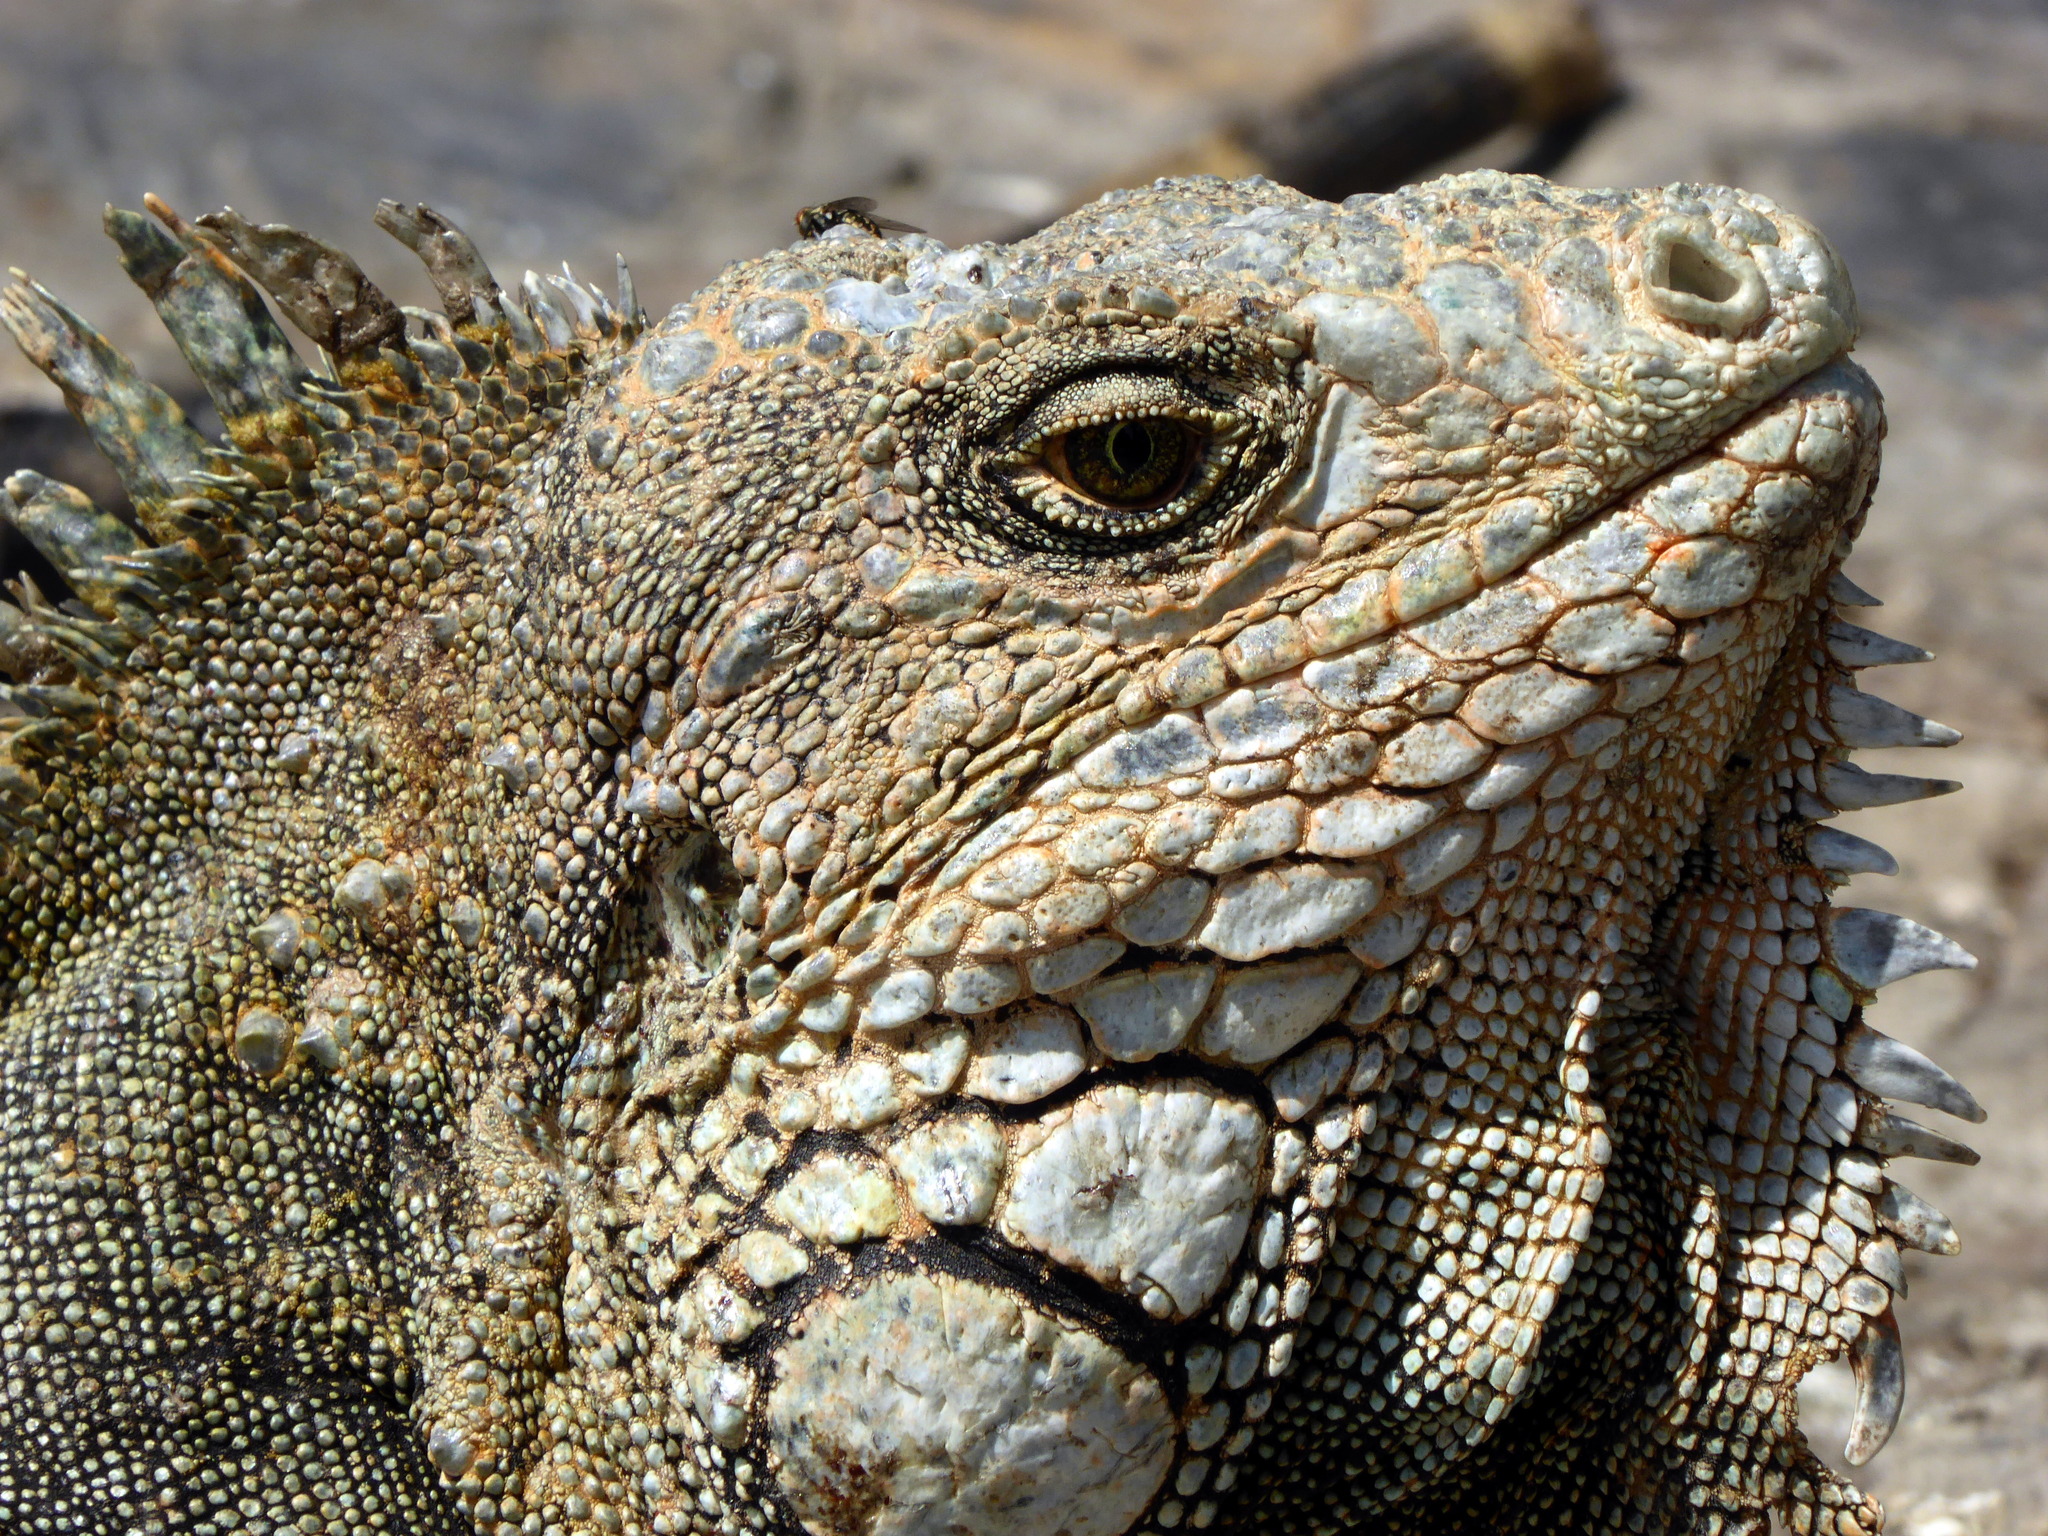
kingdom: Animalia
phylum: Chordata
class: Squamata
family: Iguanidae
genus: Iguana
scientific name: Iguana iguana
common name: Green iguana
